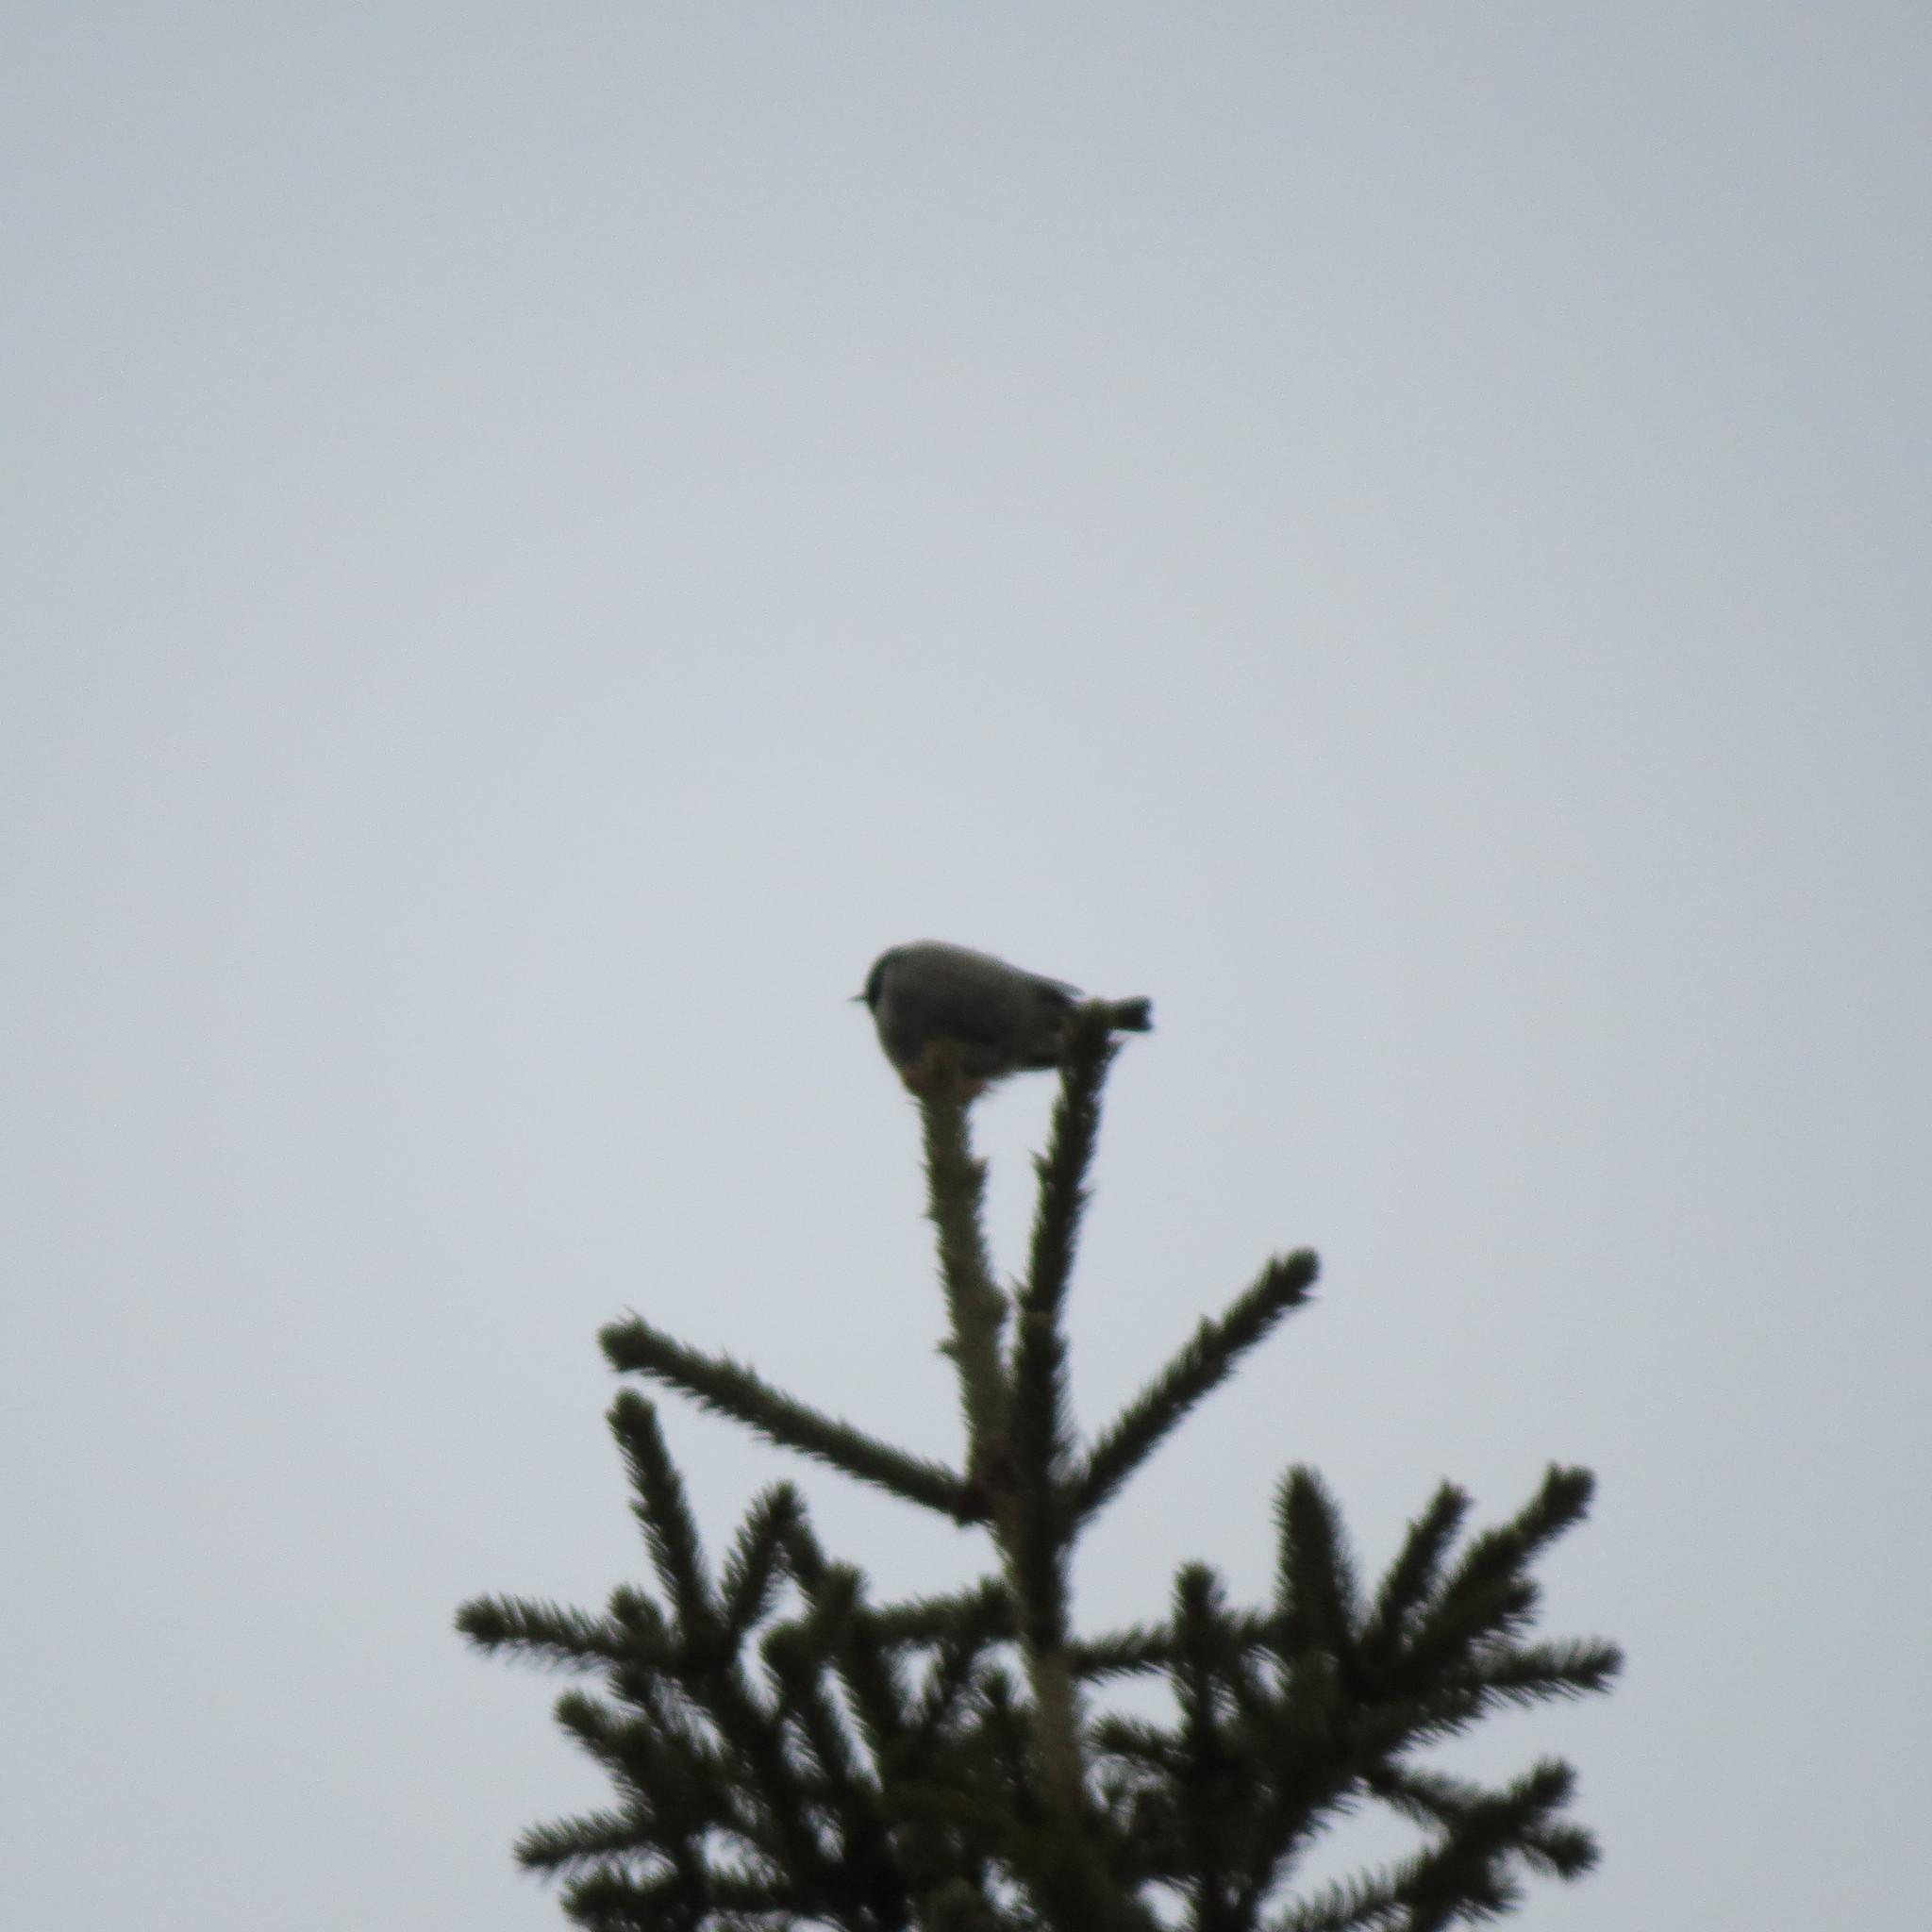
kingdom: Animalia
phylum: Chordata
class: Aves
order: Passeriformes
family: Paridae
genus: Periparus
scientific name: Periparus ater
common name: Coal tit
